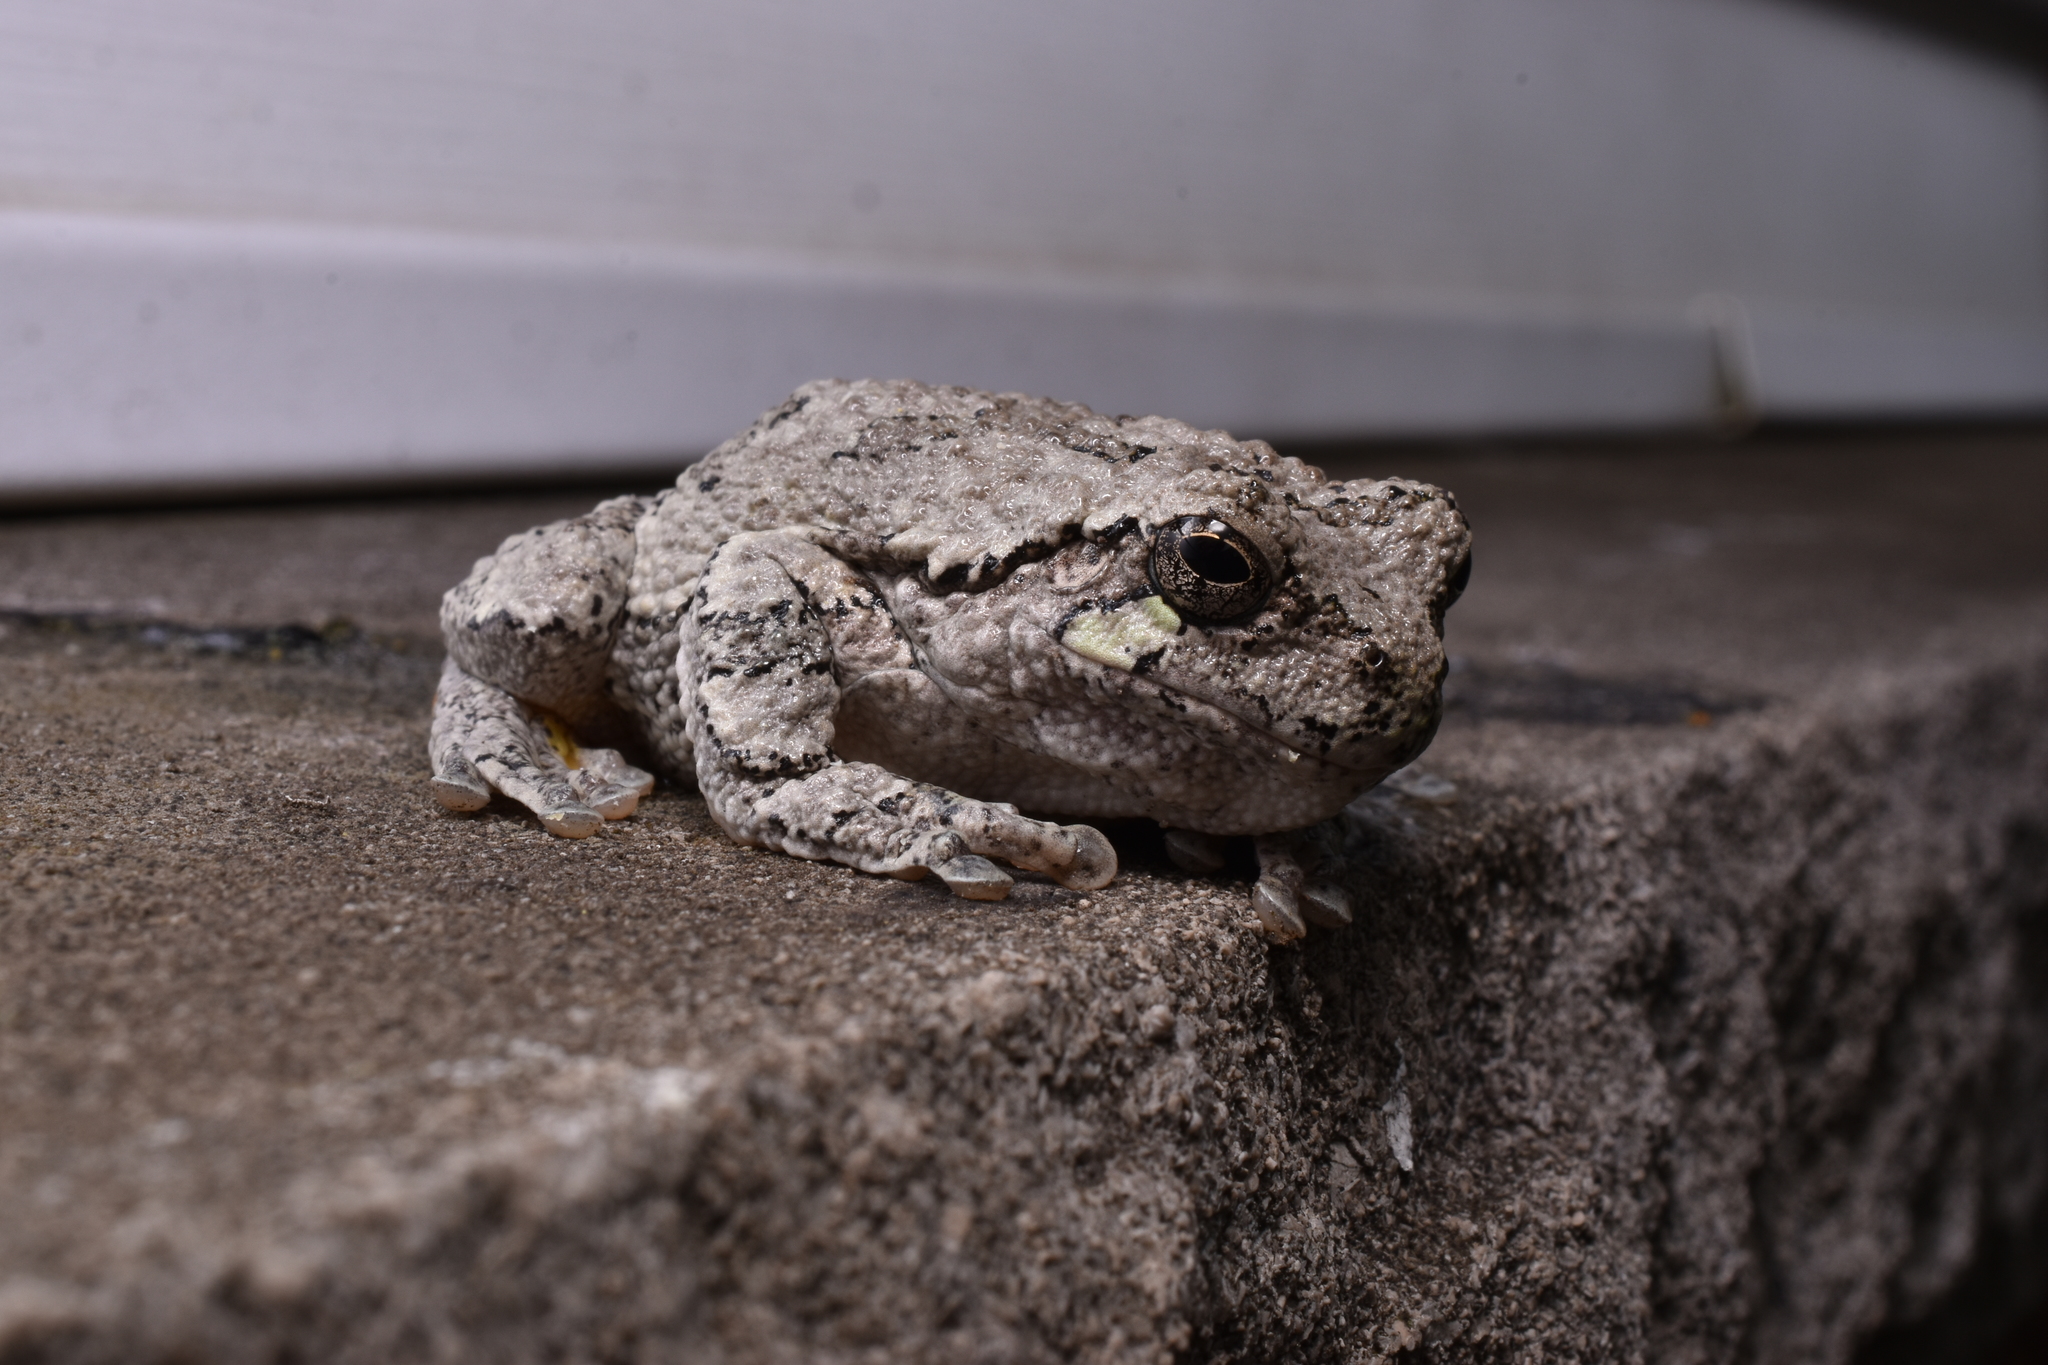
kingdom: Animalia
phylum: Chordata
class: Amphibia
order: Anura
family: Hylidae
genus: Hyla
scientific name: Hyla
